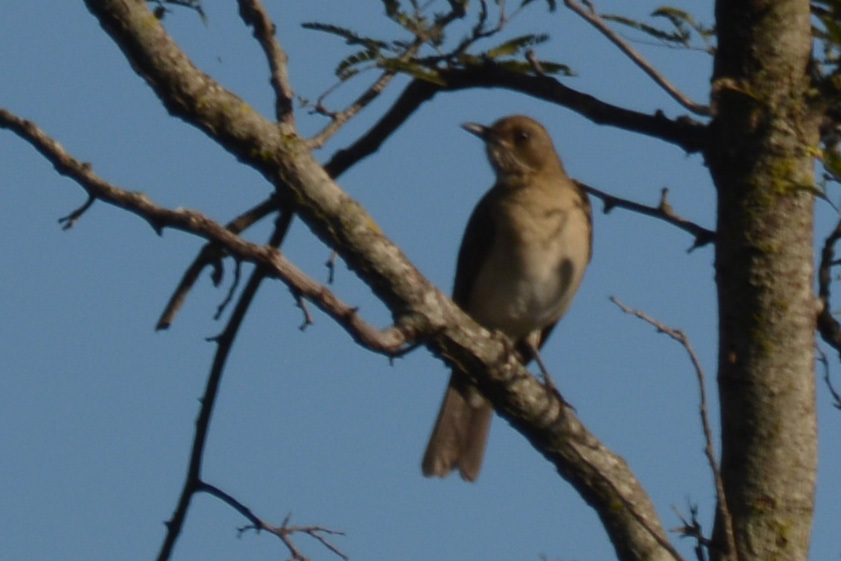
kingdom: Animalia
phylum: Chordata
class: Aves
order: Passeriformes
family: Turdidae
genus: Turdus
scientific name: Turdus amaurochalinus
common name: Creamy-bellied thrush
